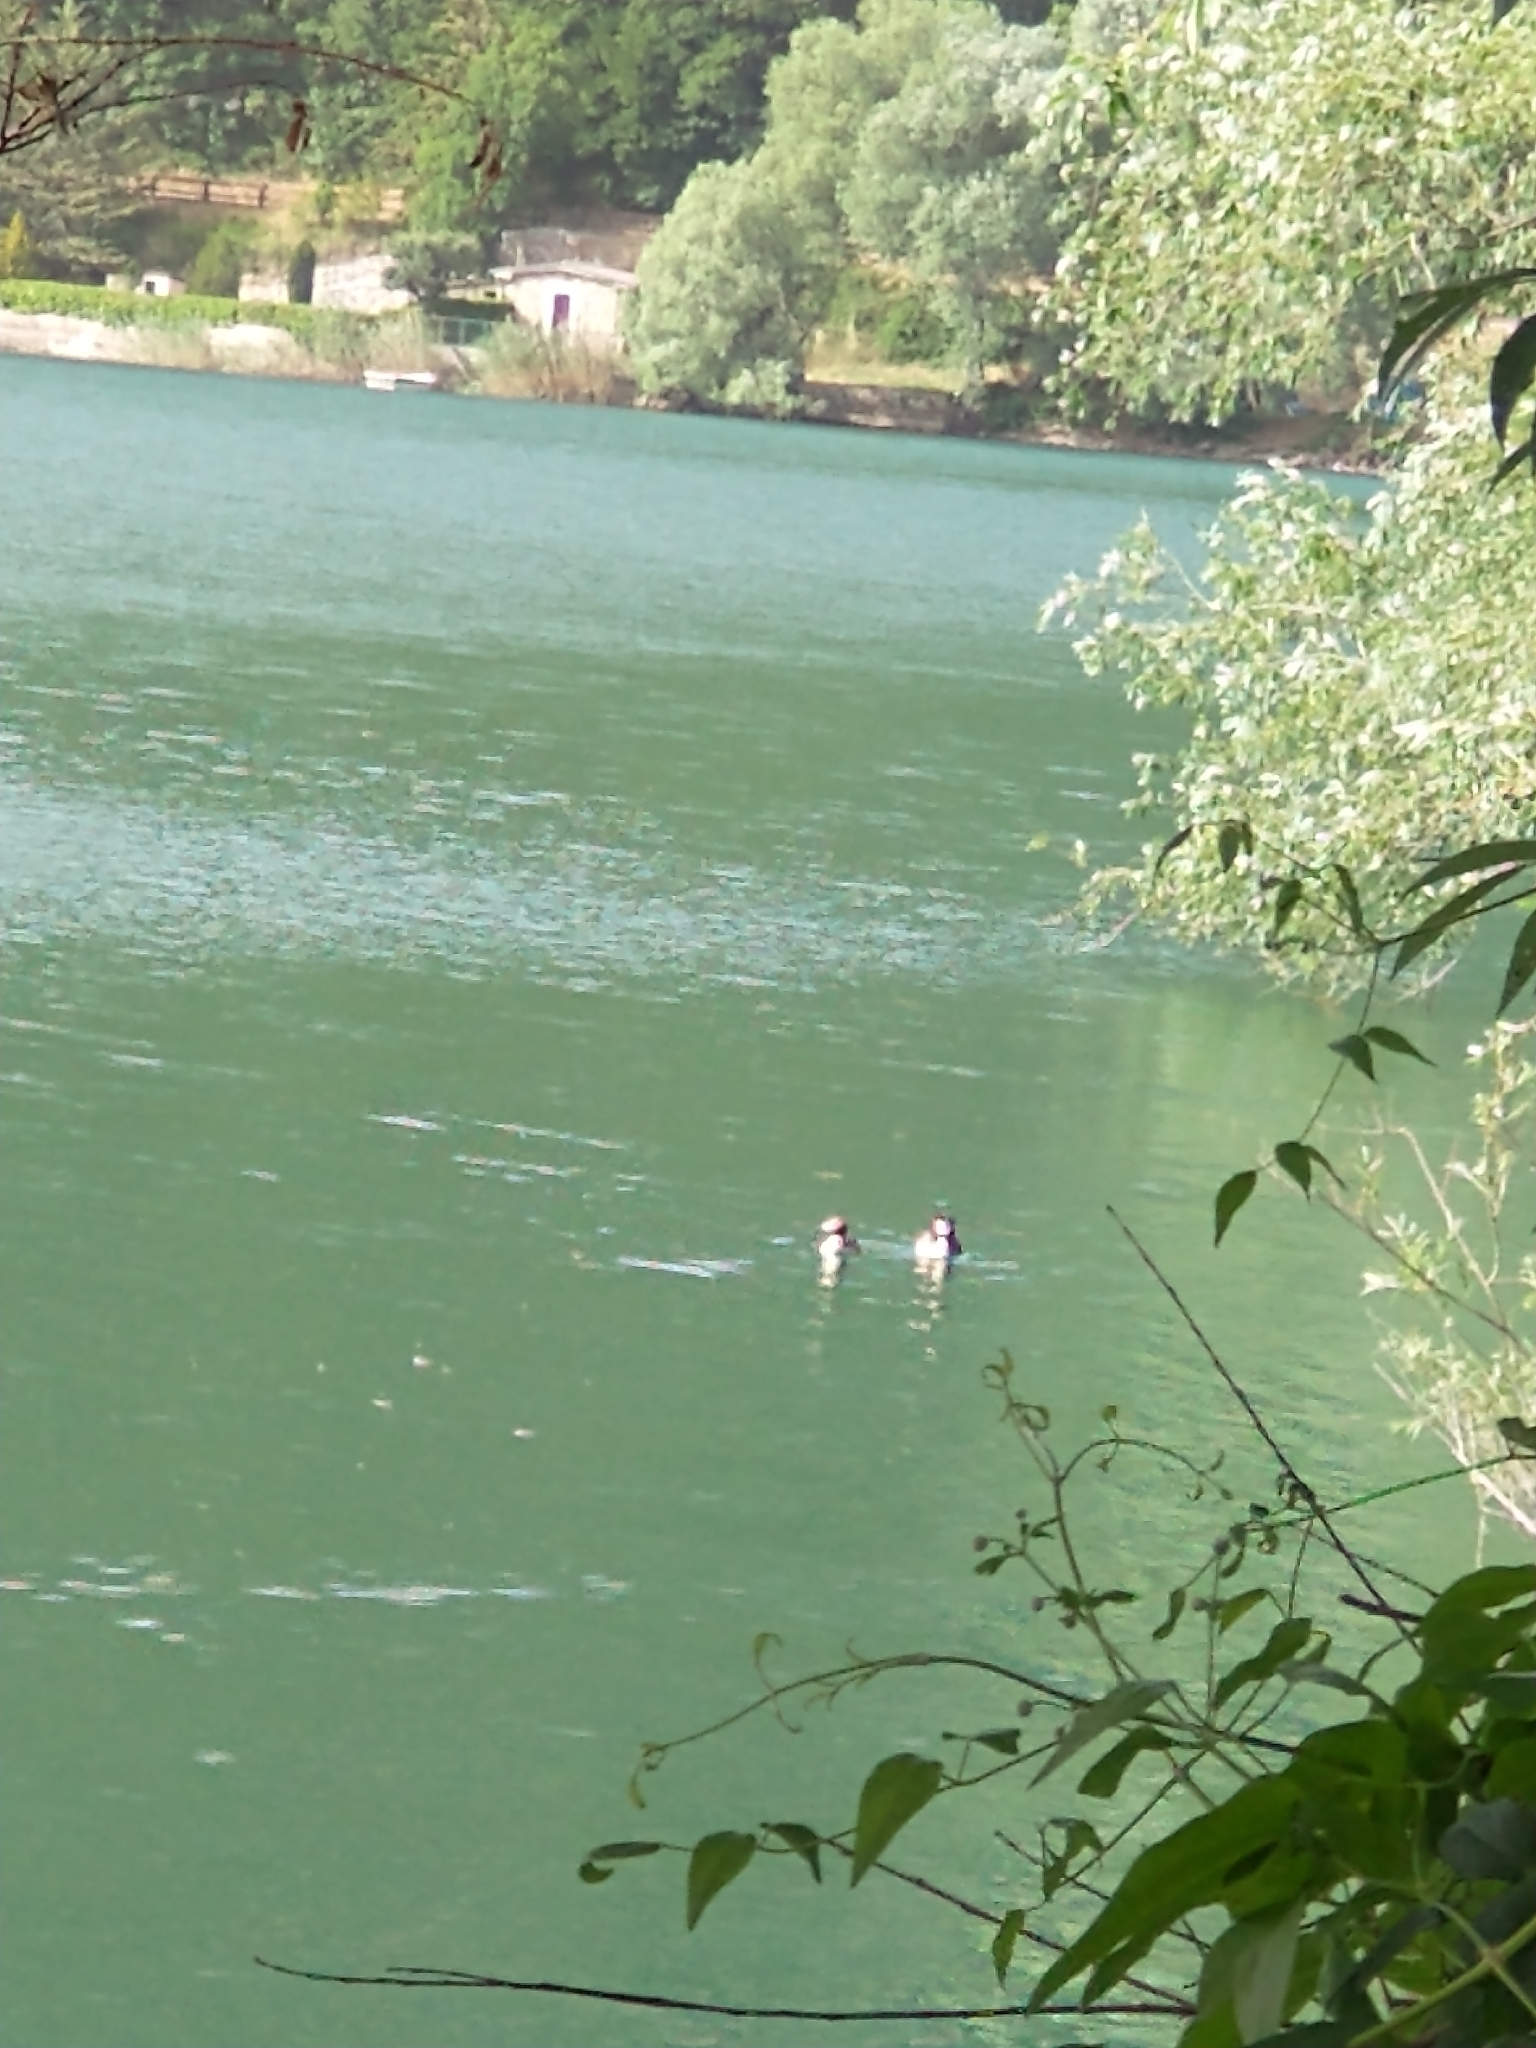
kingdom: Animalia
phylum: Chordata
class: Aves
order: Podicipediformes
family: Podicipedidae
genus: Podiceps
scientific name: Podiceps cristatus
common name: Great crested grebe
